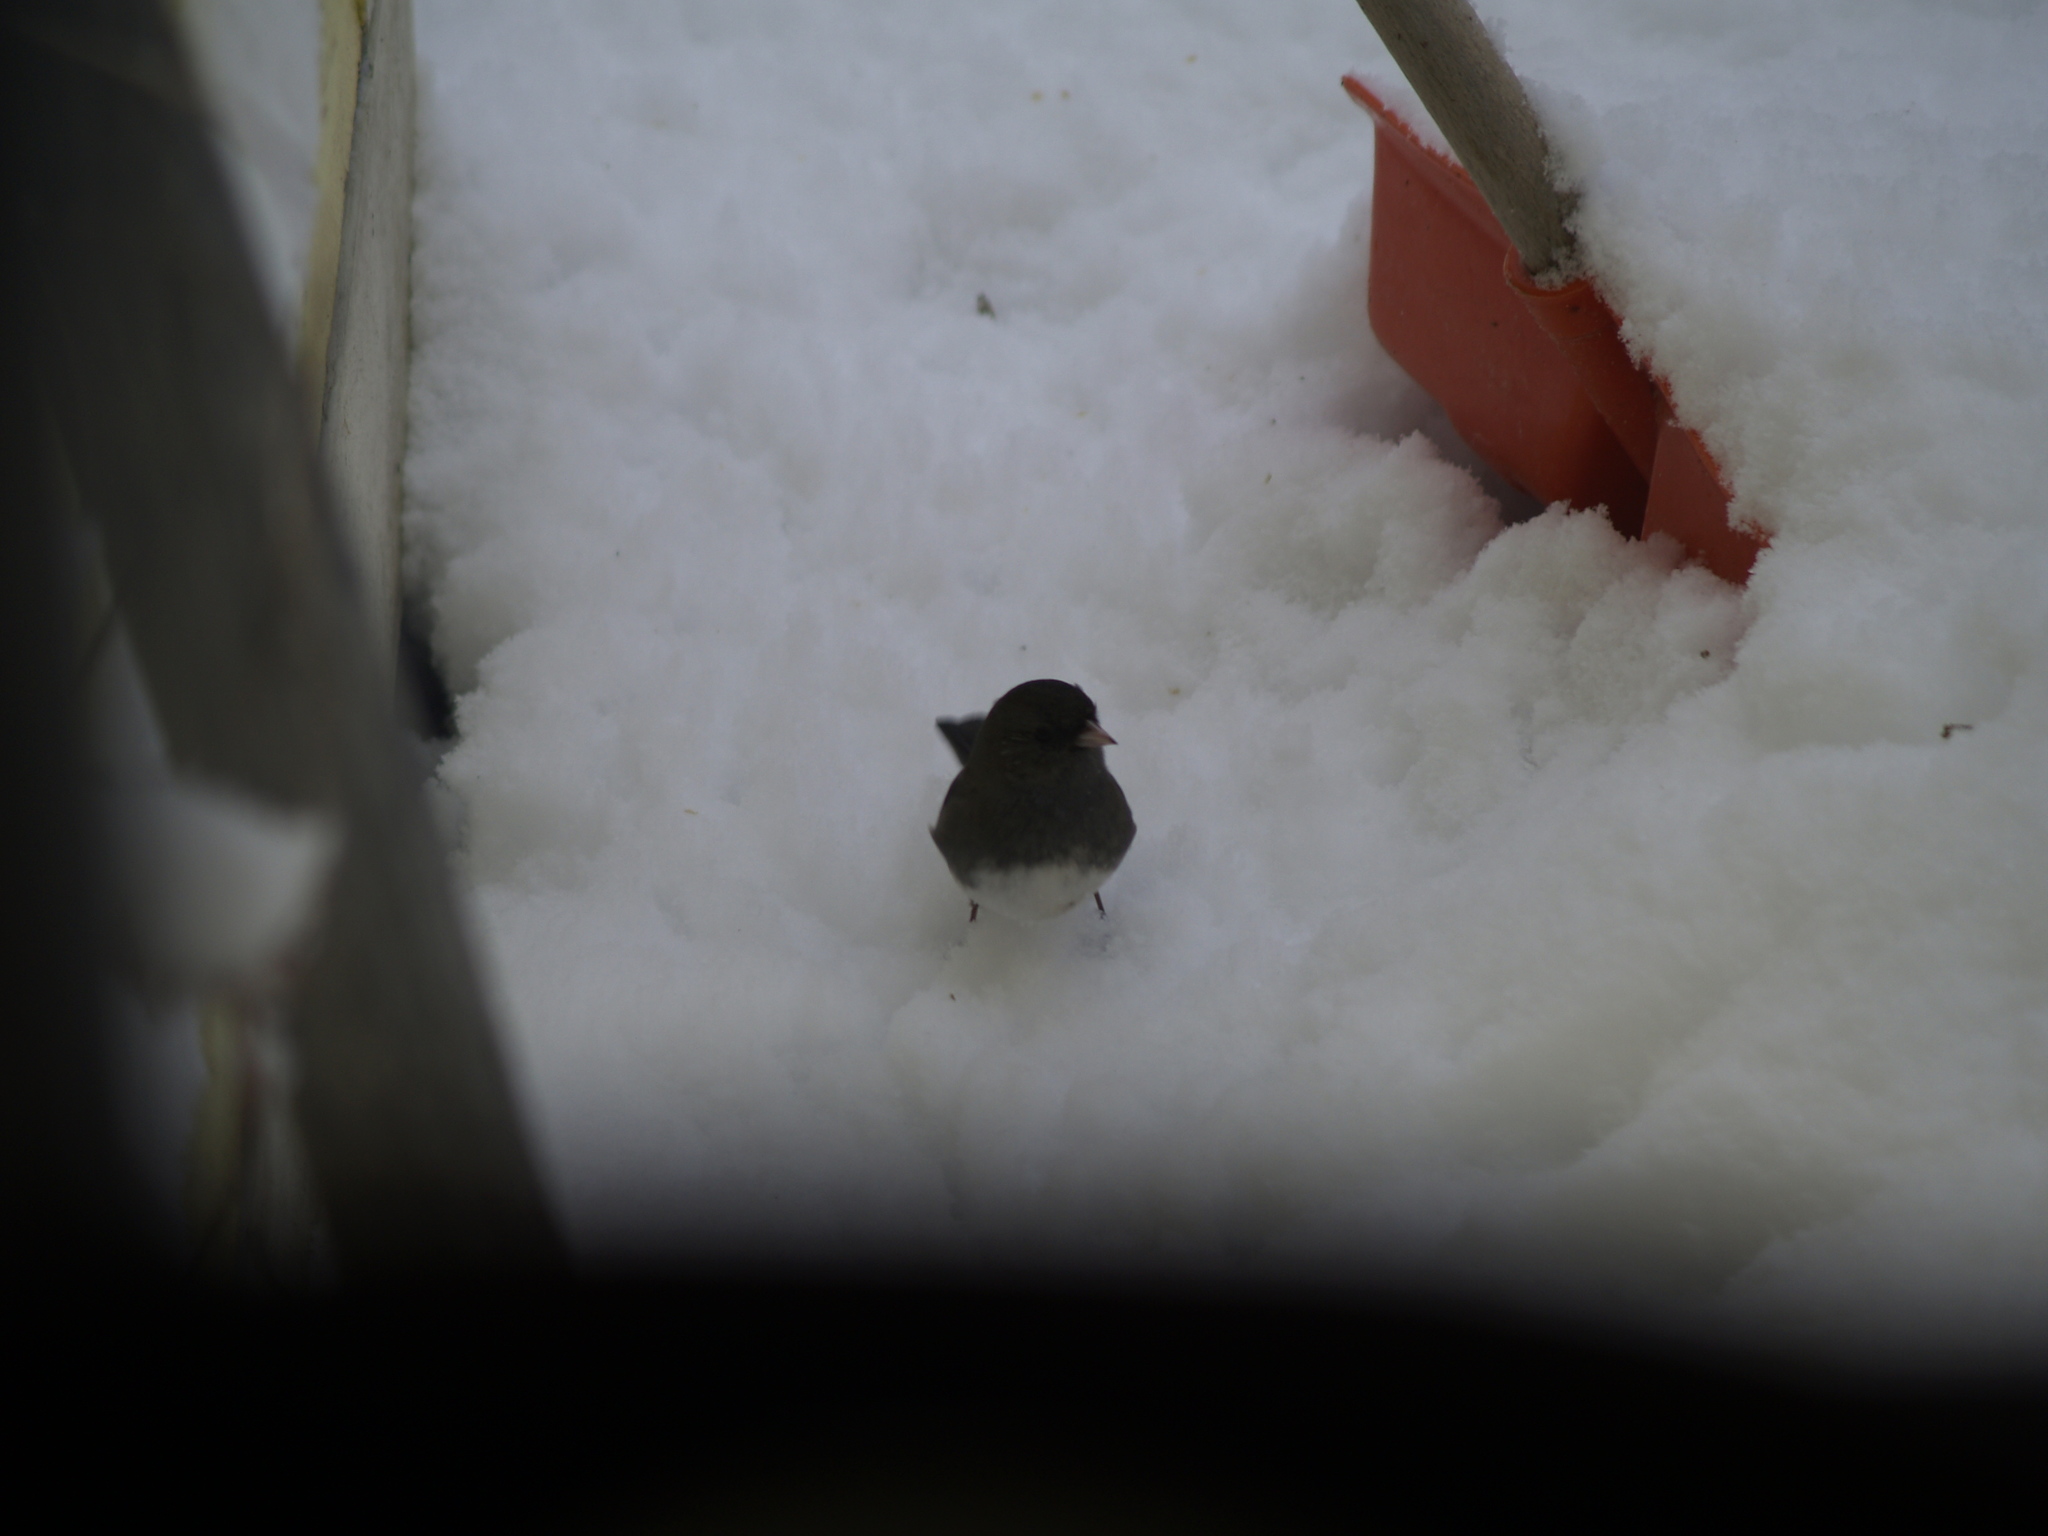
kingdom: Animalia
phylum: Chordata
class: Aves
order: Passeriformes
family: Passerellidae
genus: Junco
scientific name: Junco hyemalis
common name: Dark-eyed junco
